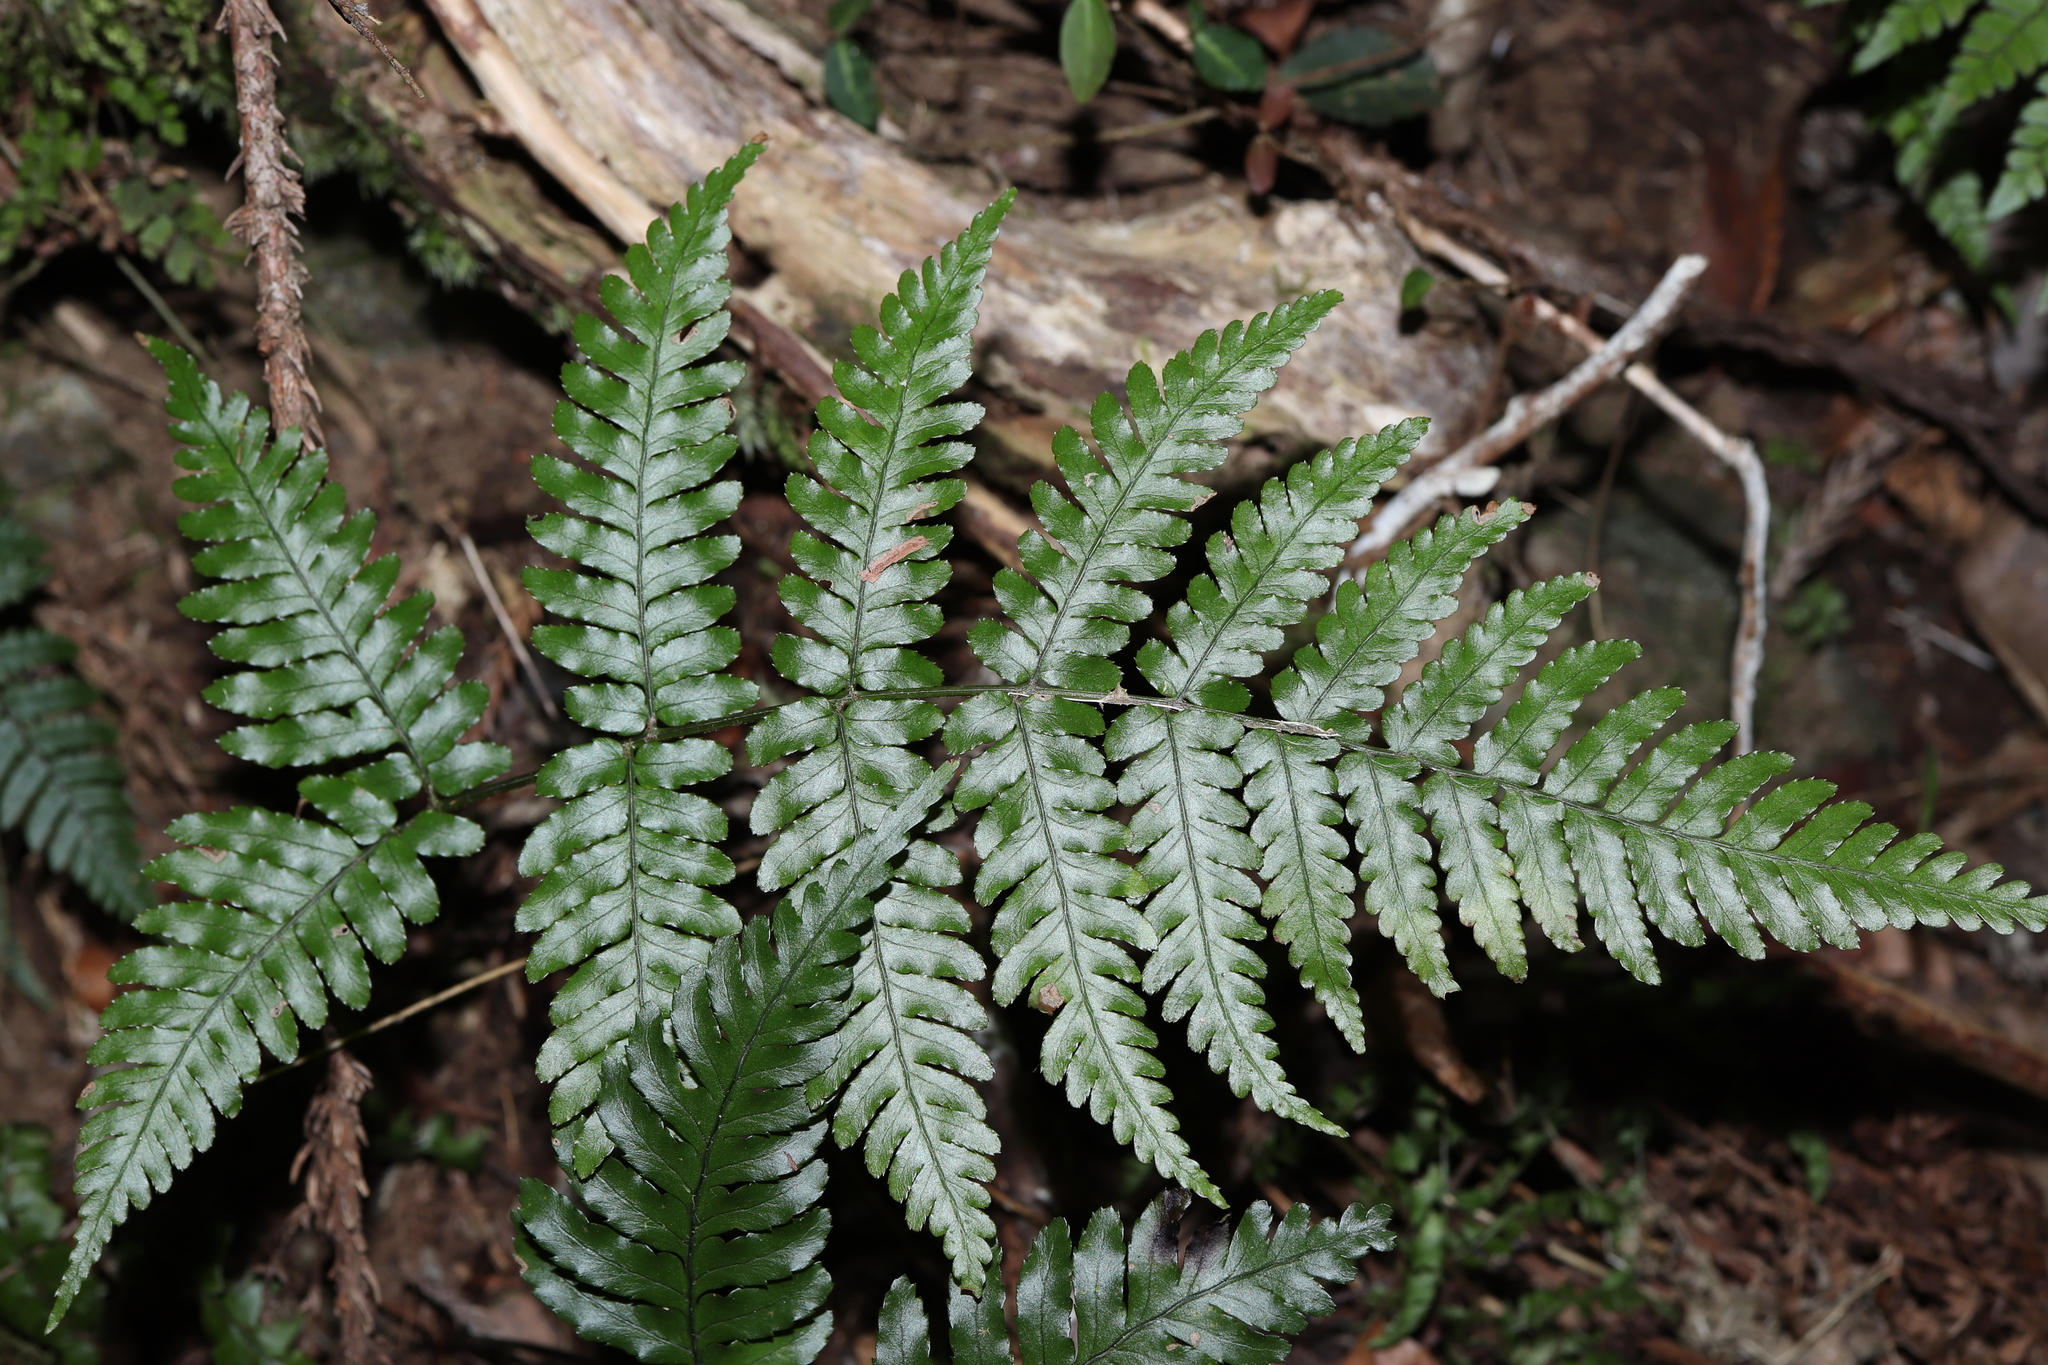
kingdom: Plantae
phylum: Tracheophyta
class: Polypodiopsida
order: Polypodiales
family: Dryopteridaceae
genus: Dryopteris
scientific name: Dryopteris erythrosora
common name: Autumn fern
